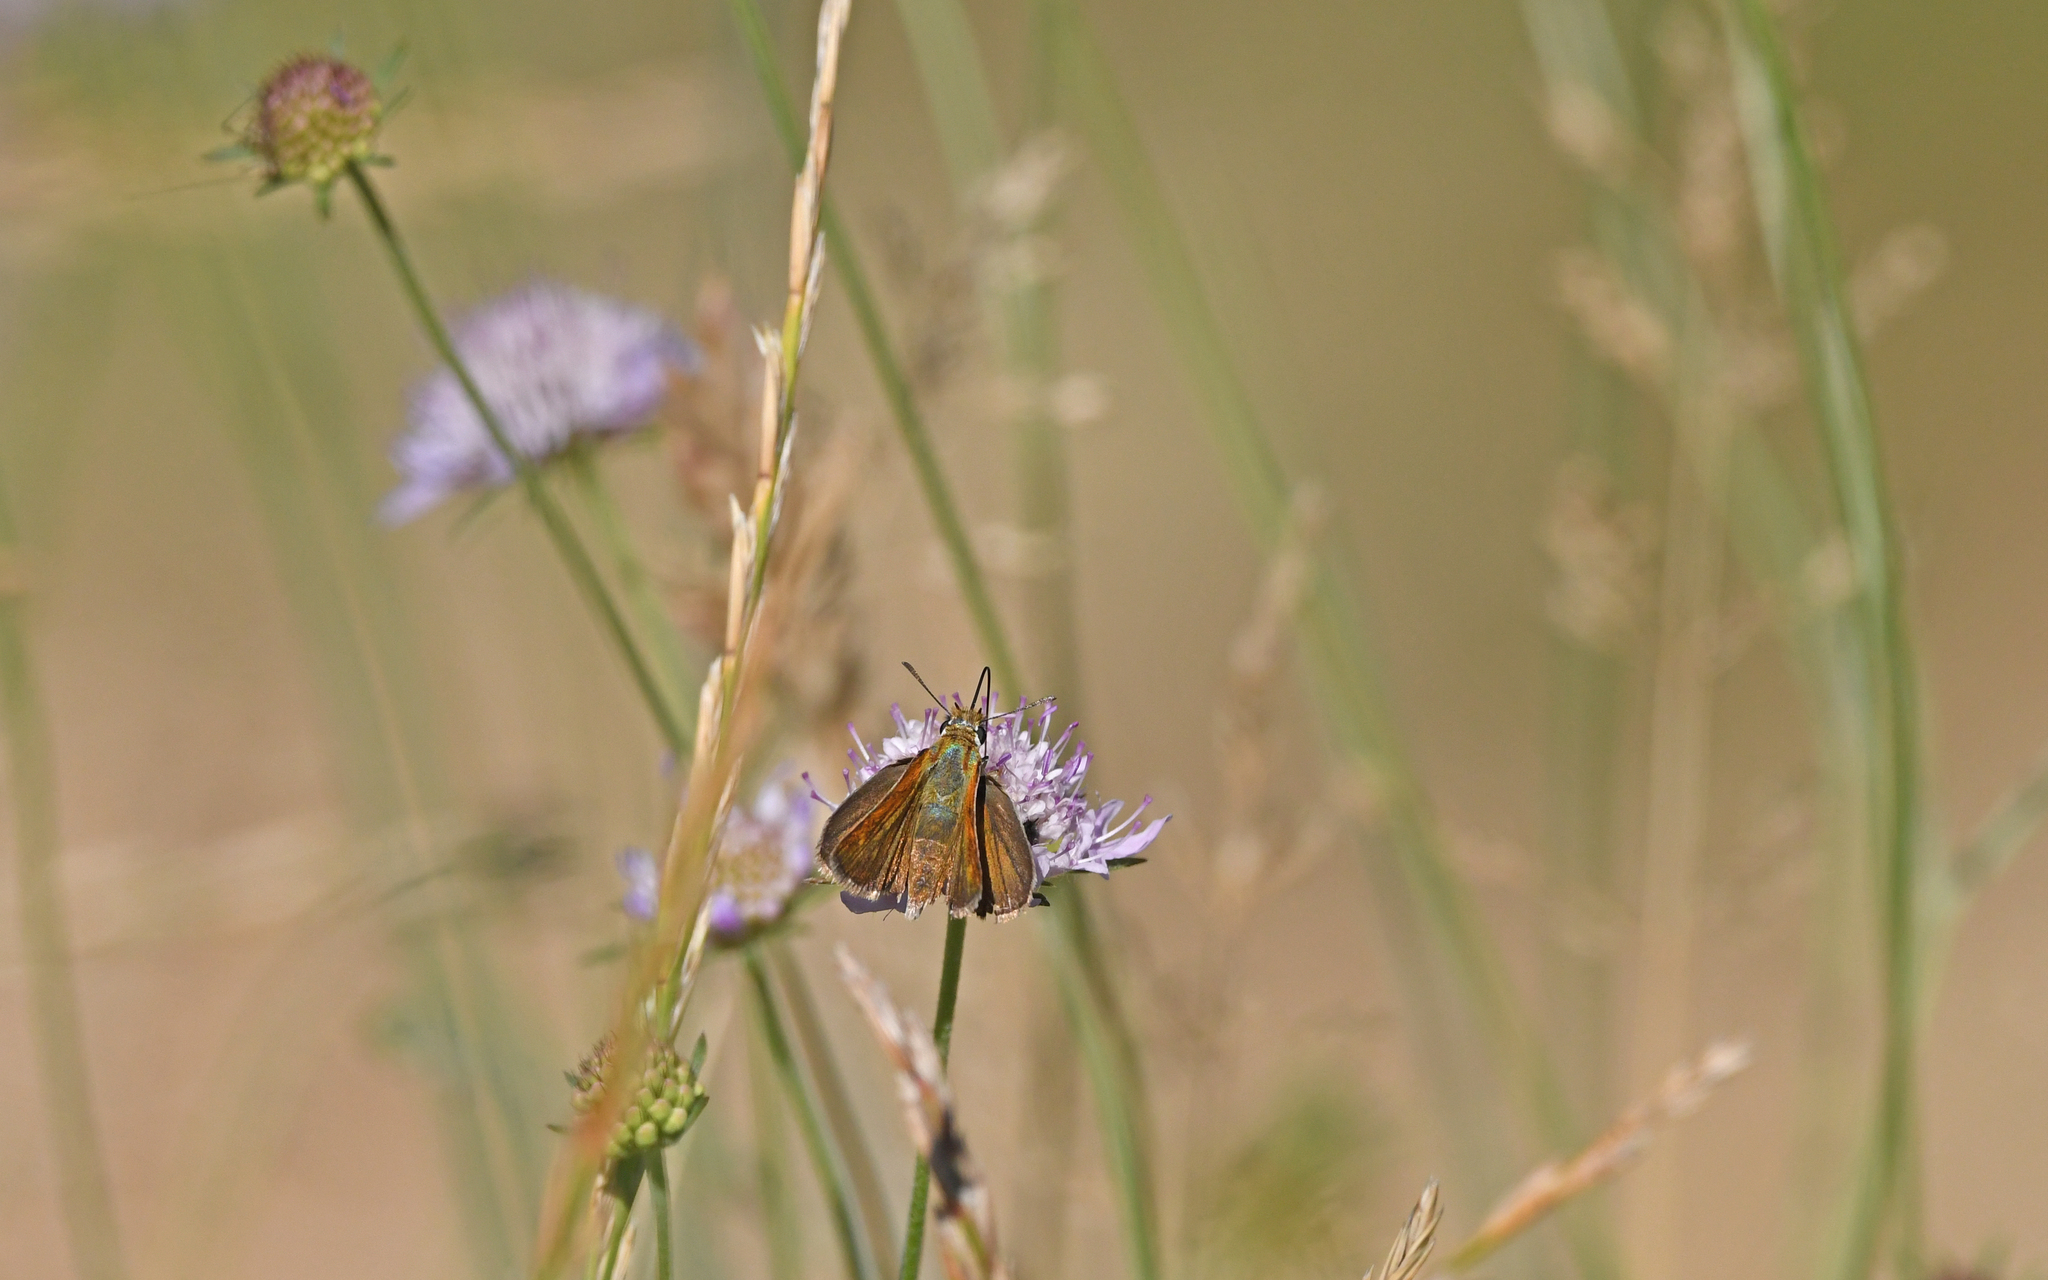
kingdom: Animalia
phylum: Arthropoda
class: Insecta
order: Lepidoptera
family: Hesperiidae
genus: Thymelicus
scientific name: Thymelicus acteon
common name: Lulworth skipper
